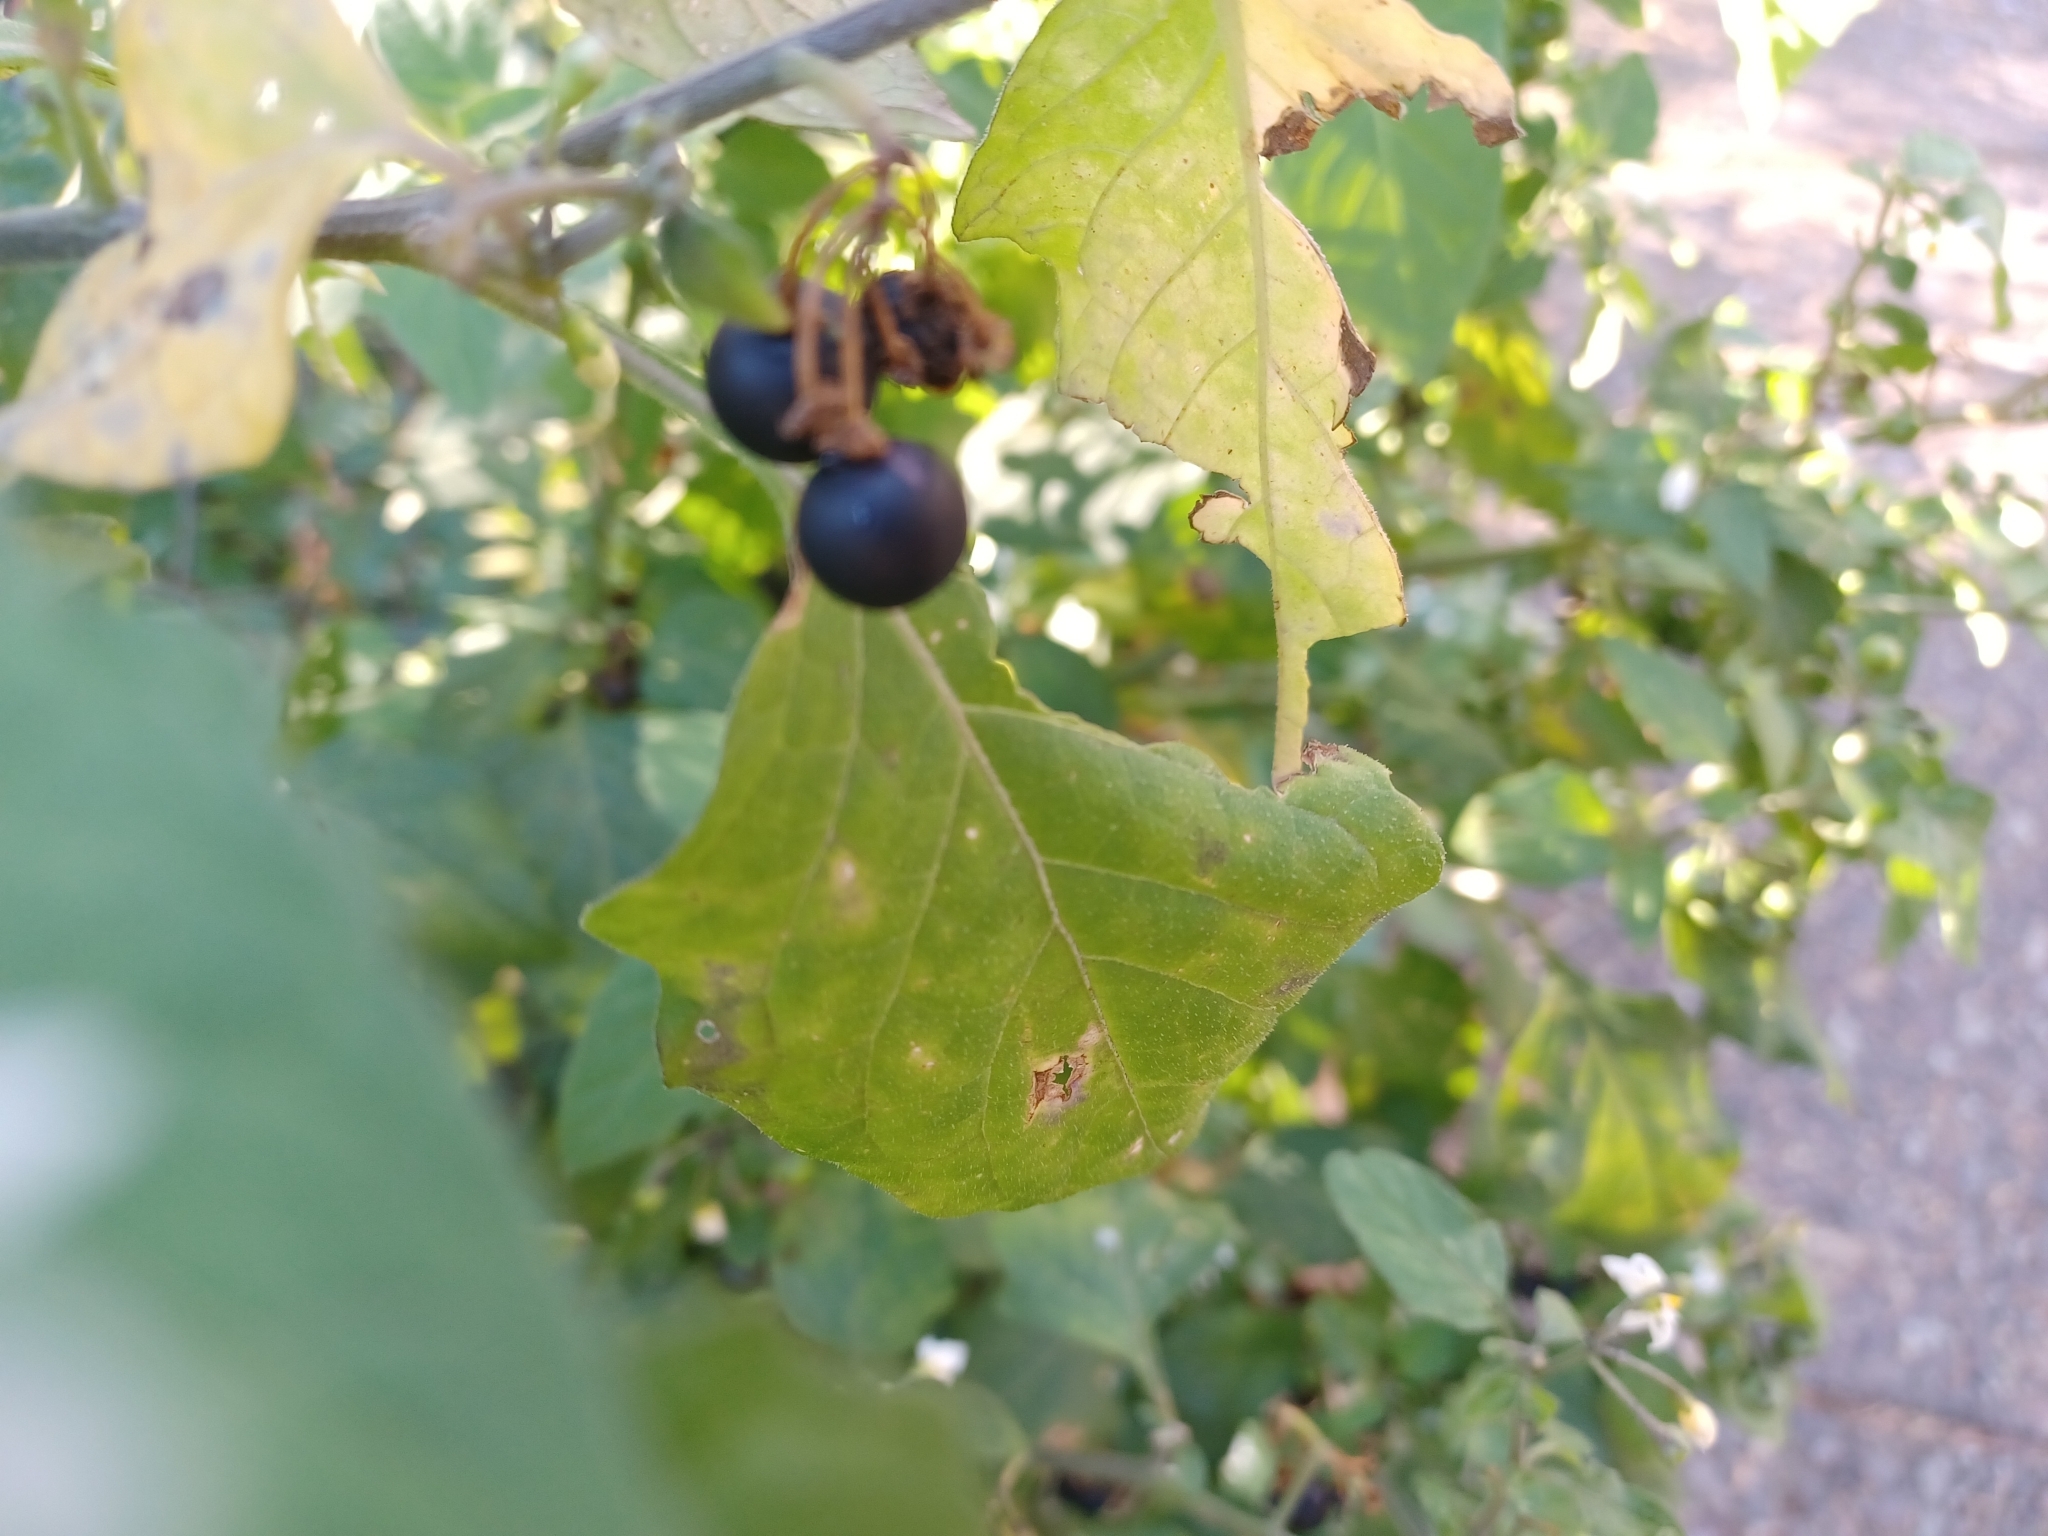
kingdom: Plantae
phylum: Tracheophyta
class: Magnoliopsida
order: Solanales
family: Solanaceae
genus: Solanum
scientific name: Solanum nigrum
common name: Black nightshade
